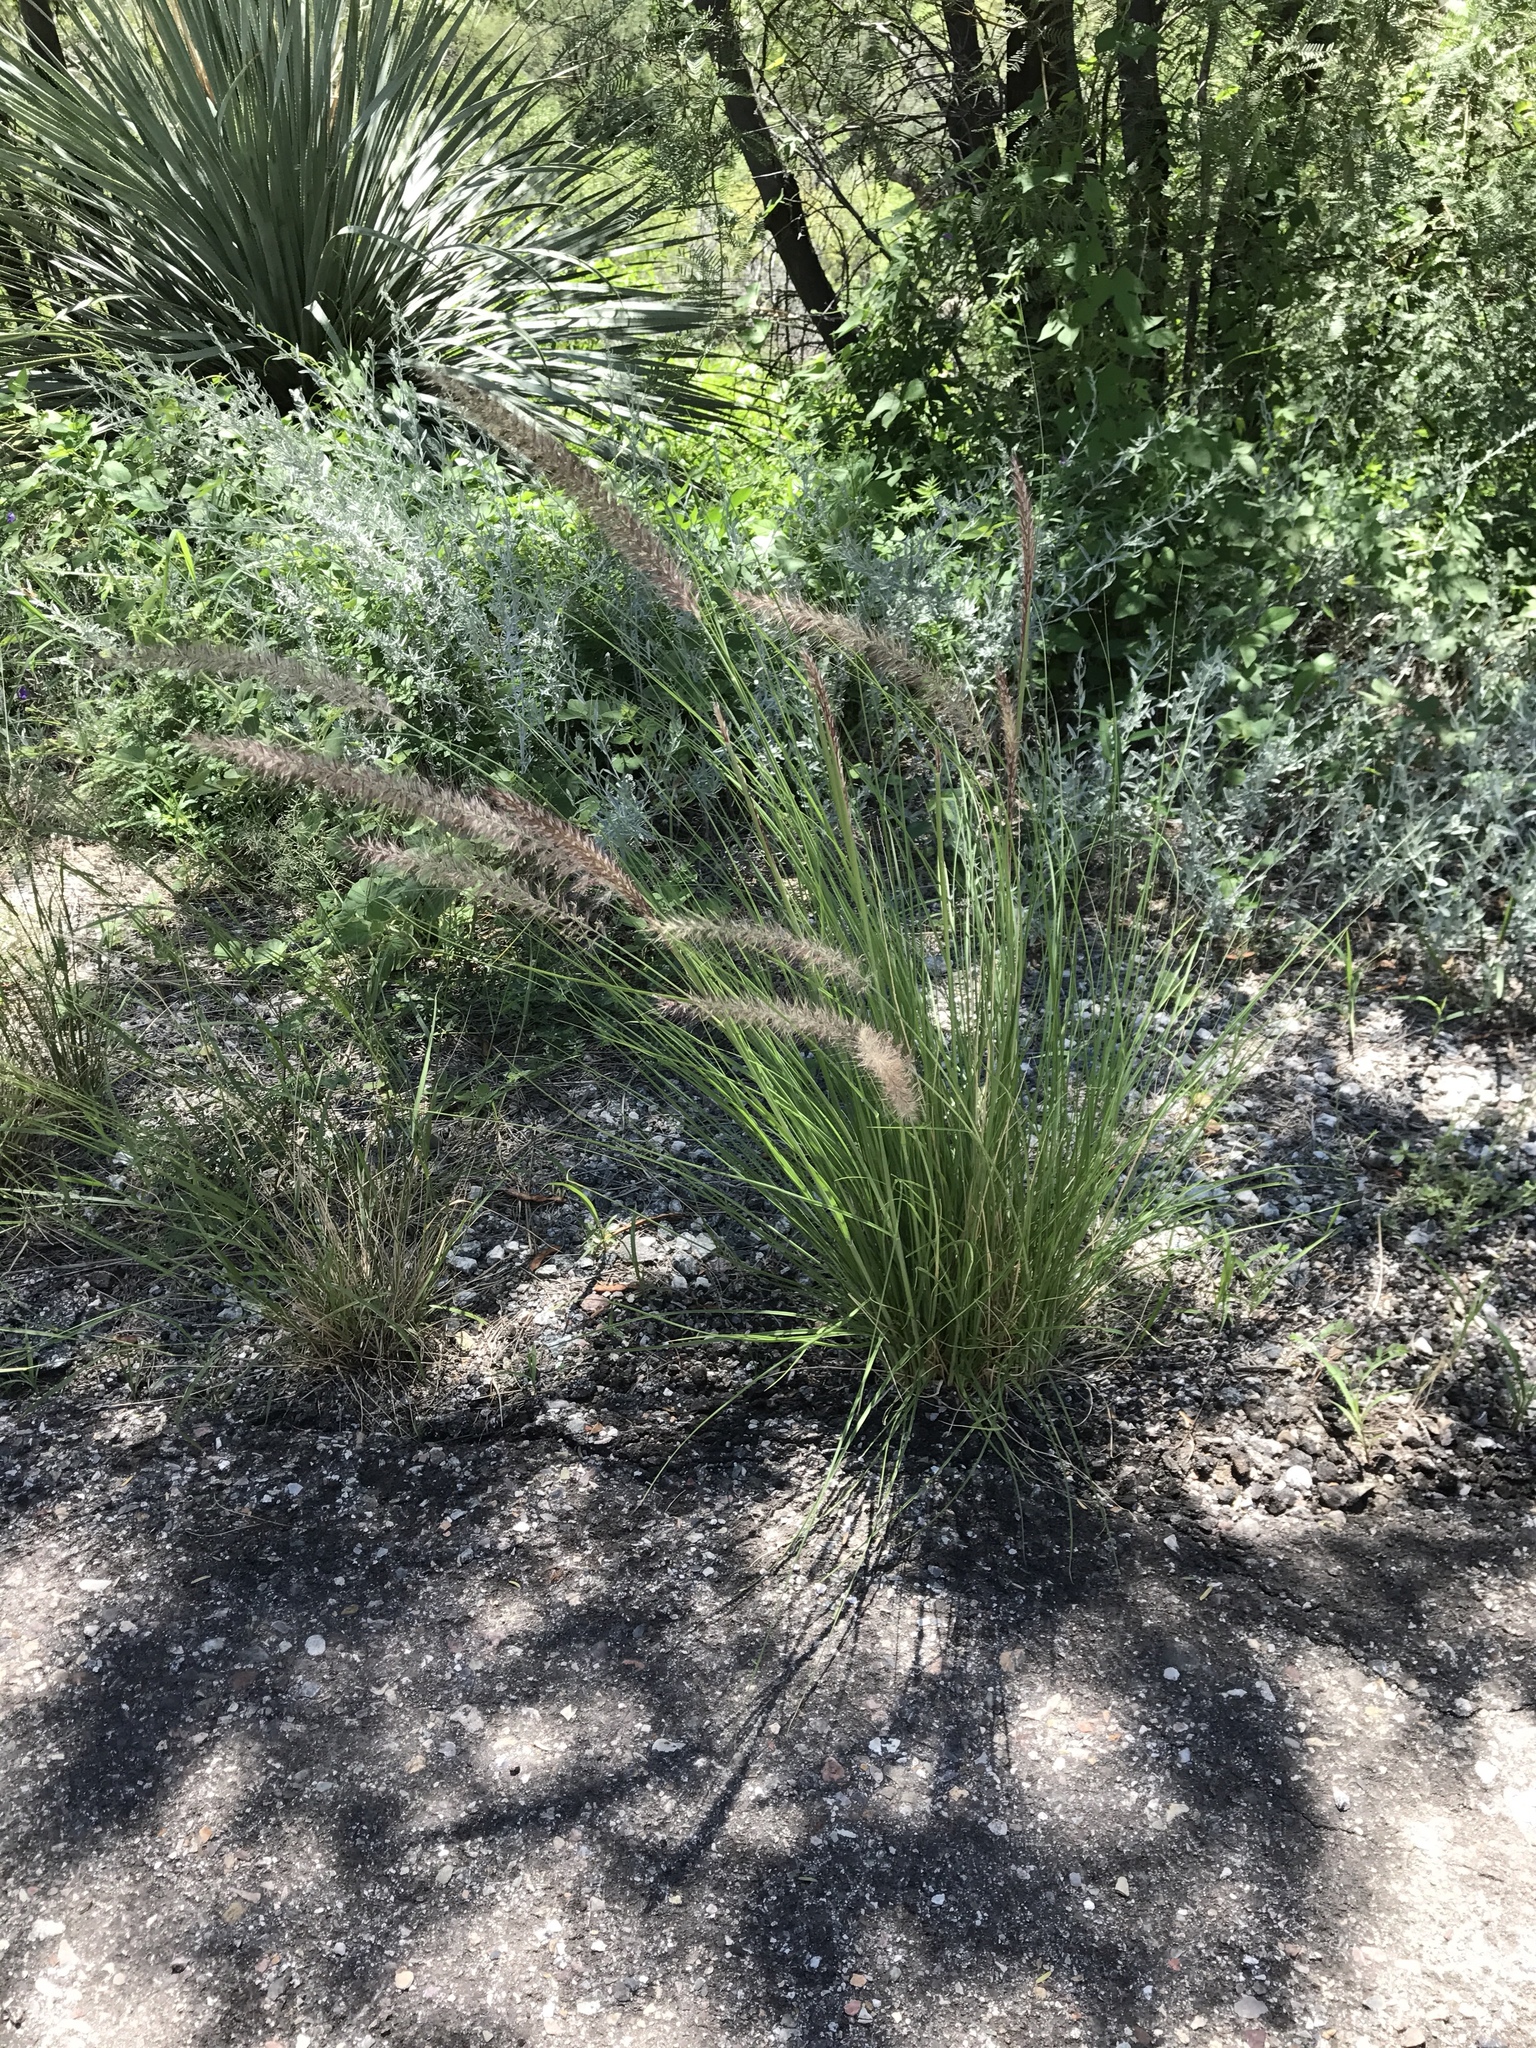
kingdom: Plantae
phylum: Tracheophyta
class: Liliopsida
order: Poales
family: Poaceae
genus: Cenchrus
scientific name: Cenchrus setaceus
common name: Crimson fountaingrass
